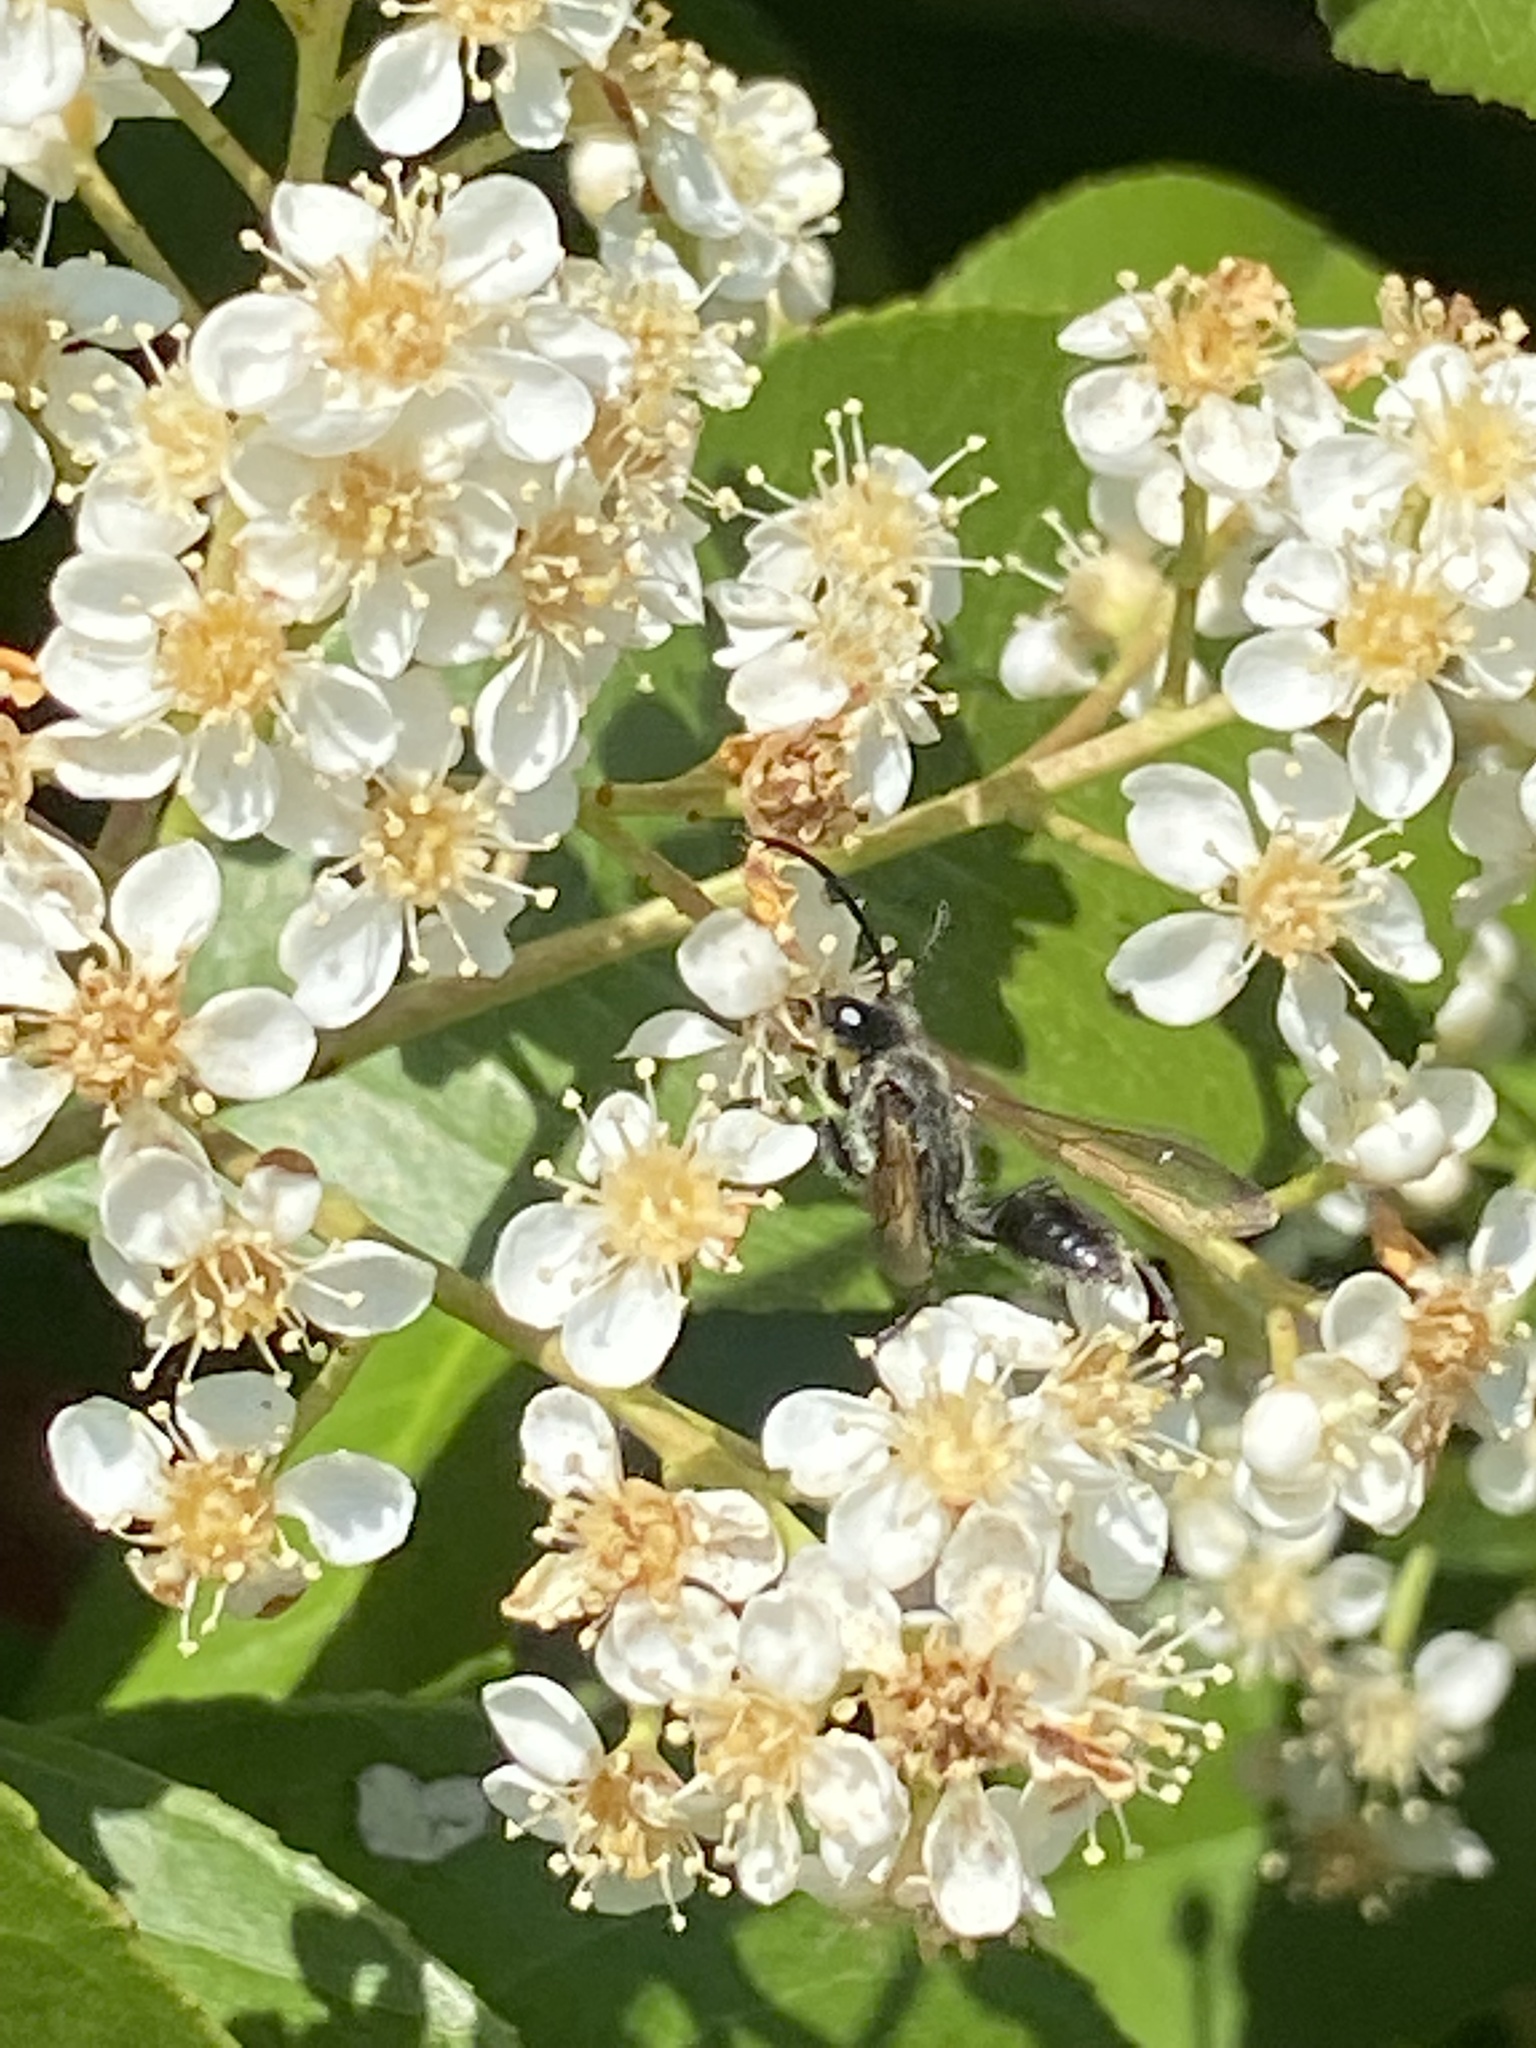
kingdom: Animalia
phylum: Arthropoda
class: Insecta
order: Hymenoptera
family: Sphecidae
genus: Isodontia
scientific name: Isodontia
